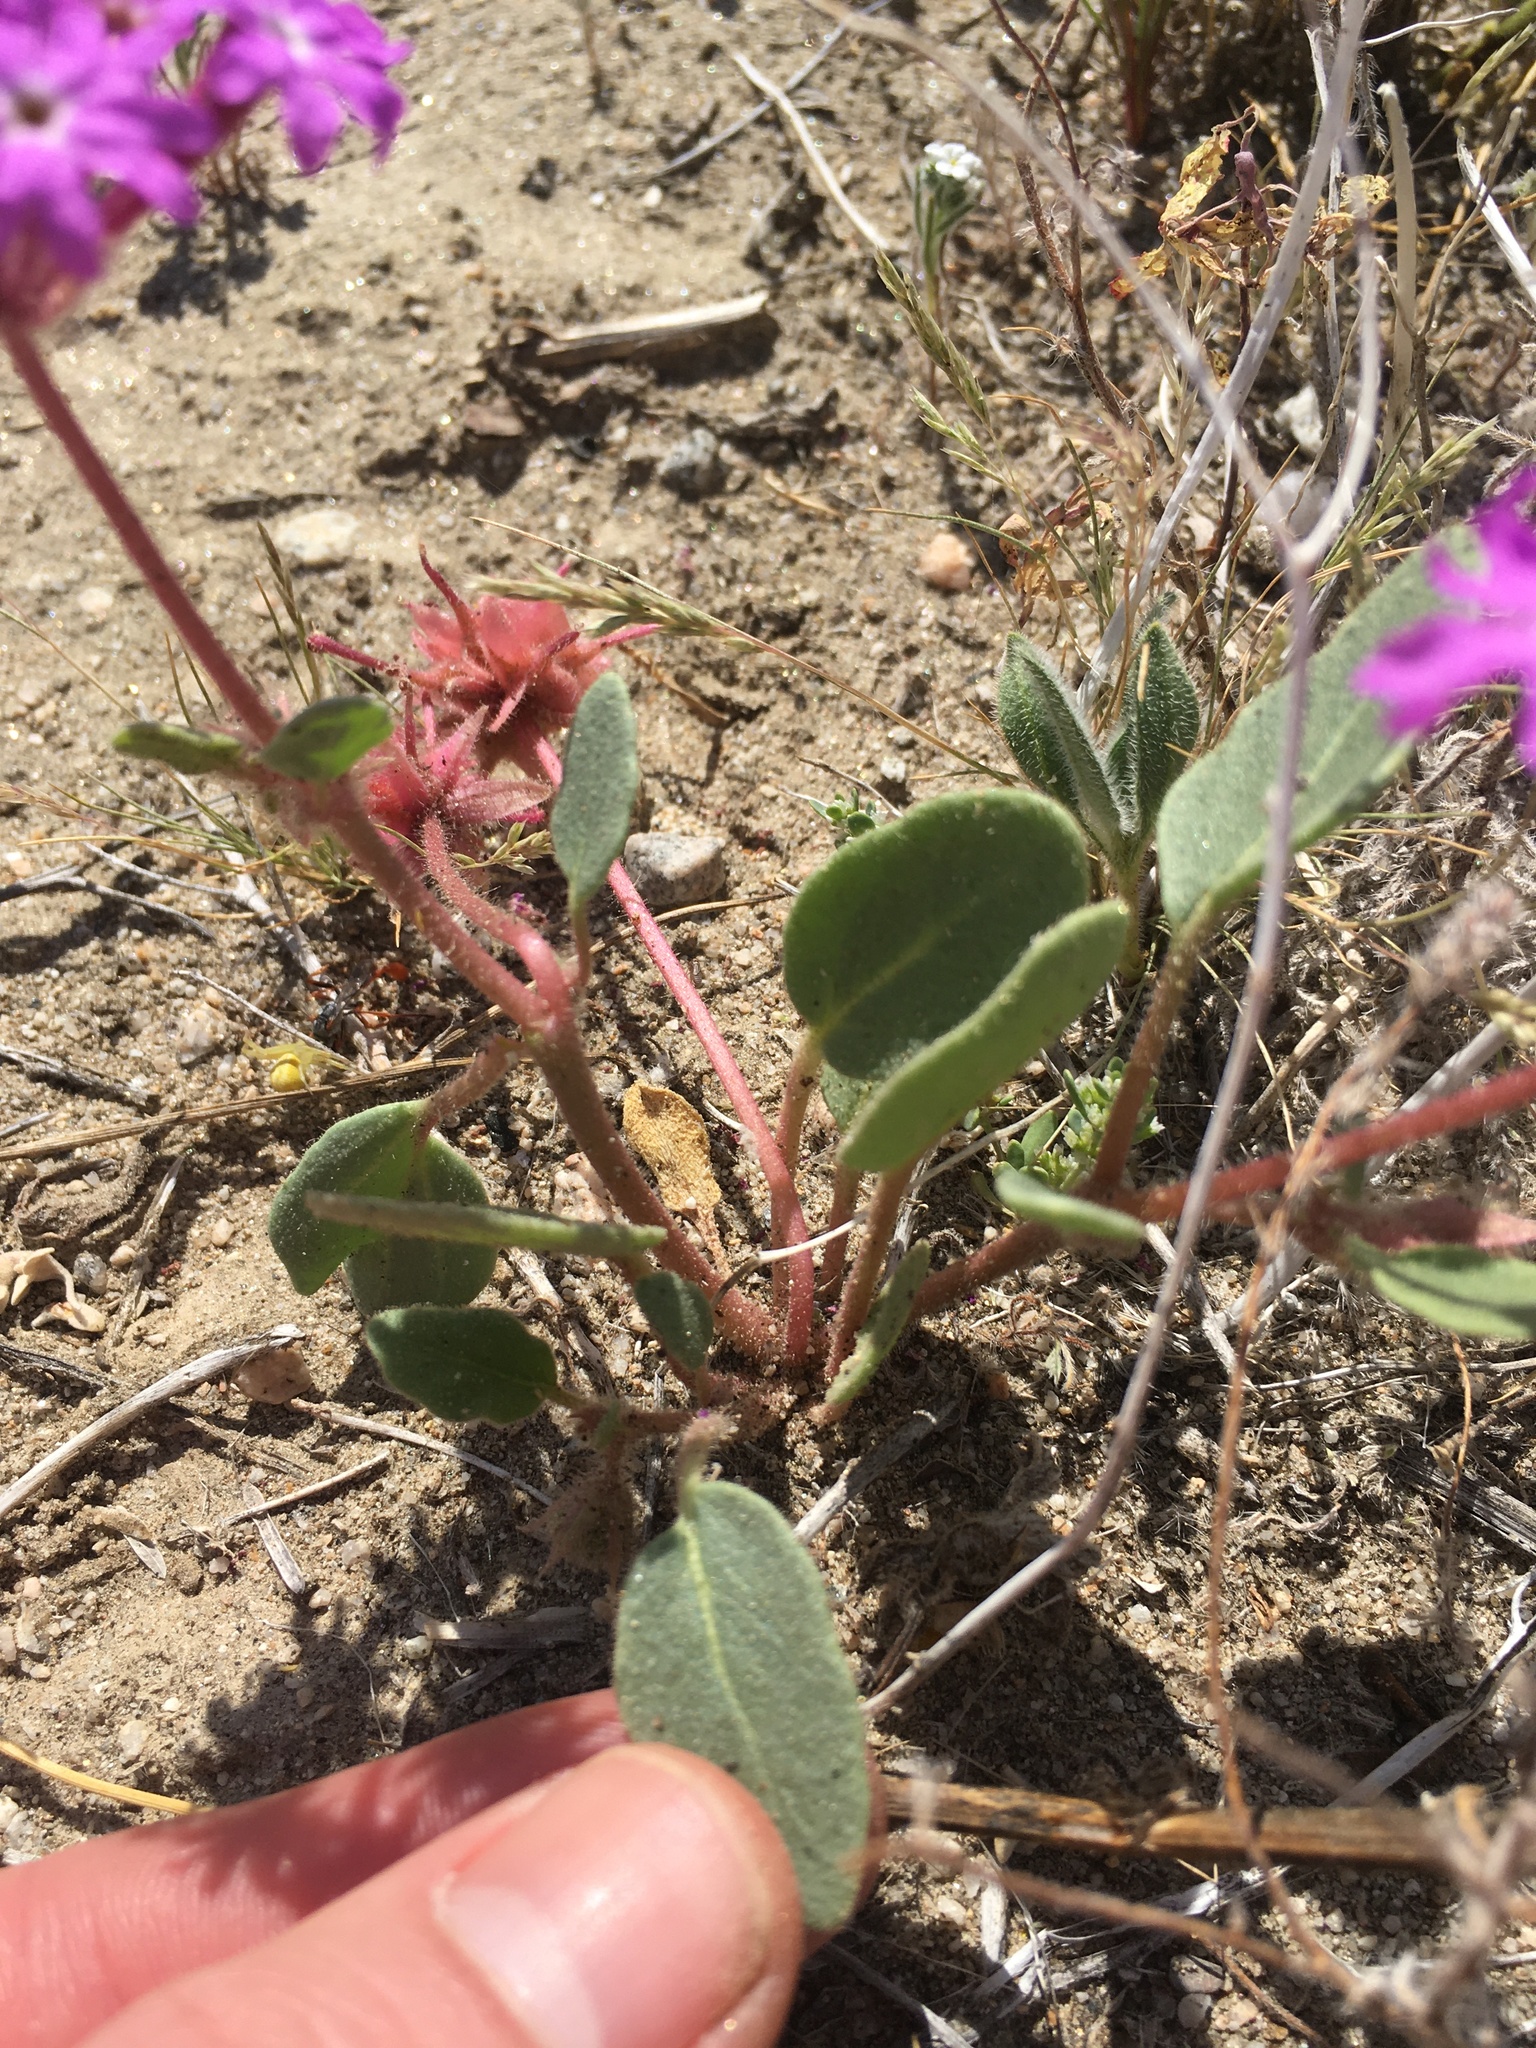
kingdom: Plantae
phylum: Tracheophyta
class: Magnoliopsida
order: Caryophyllales
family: Nyctaginaceae
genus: Abronia
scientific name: Abronia villosa
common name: Desert sand-verbena
